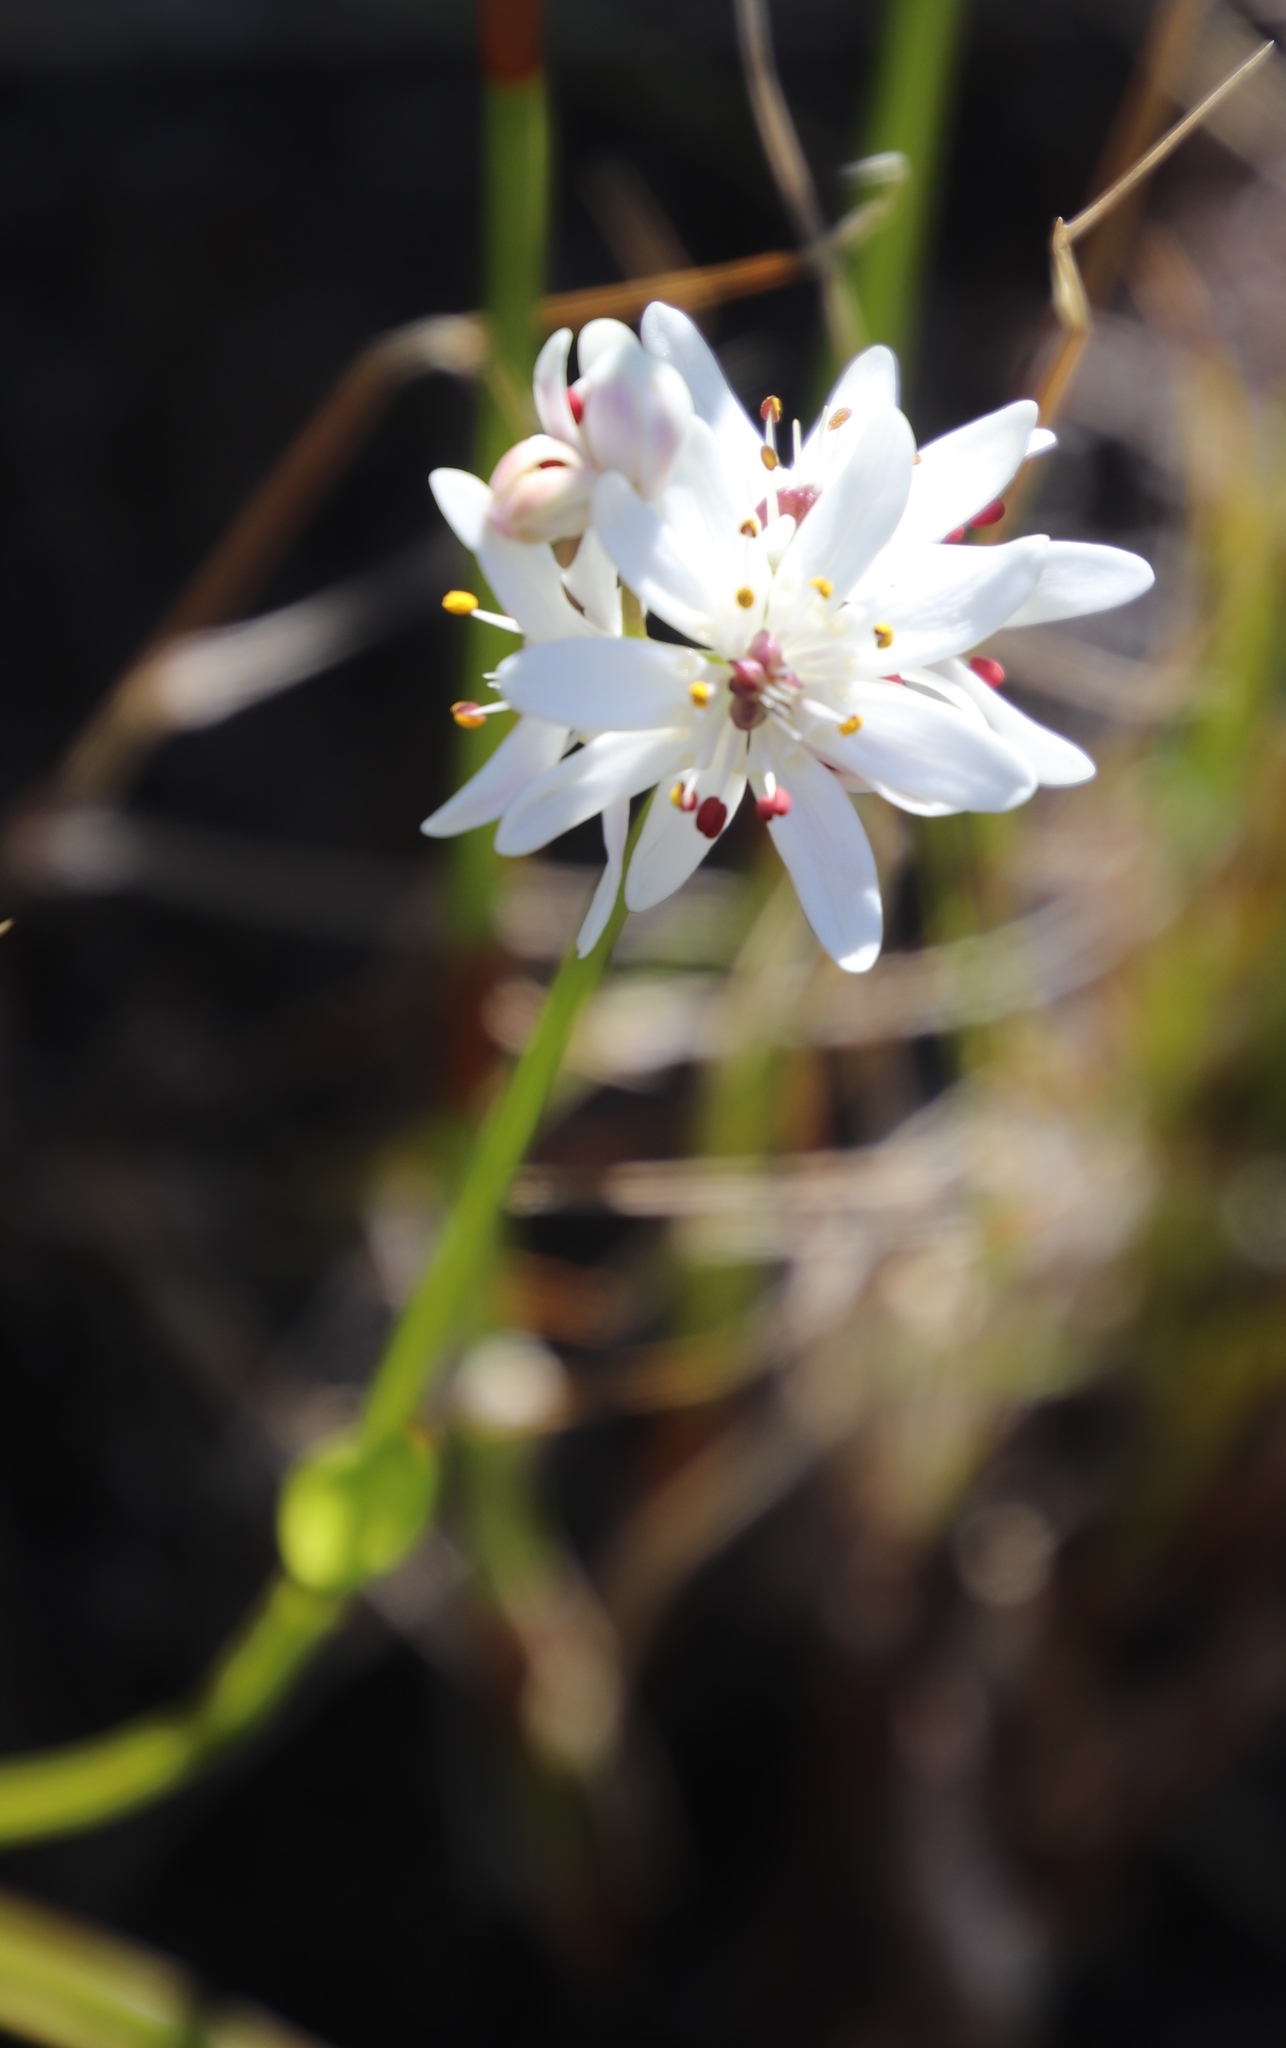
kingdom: Plantae
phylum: Tracheophyta
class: Liliopsida
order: Liliales
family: Colchicaceae
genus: Wurmbea
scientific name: Wurmbea punctata
